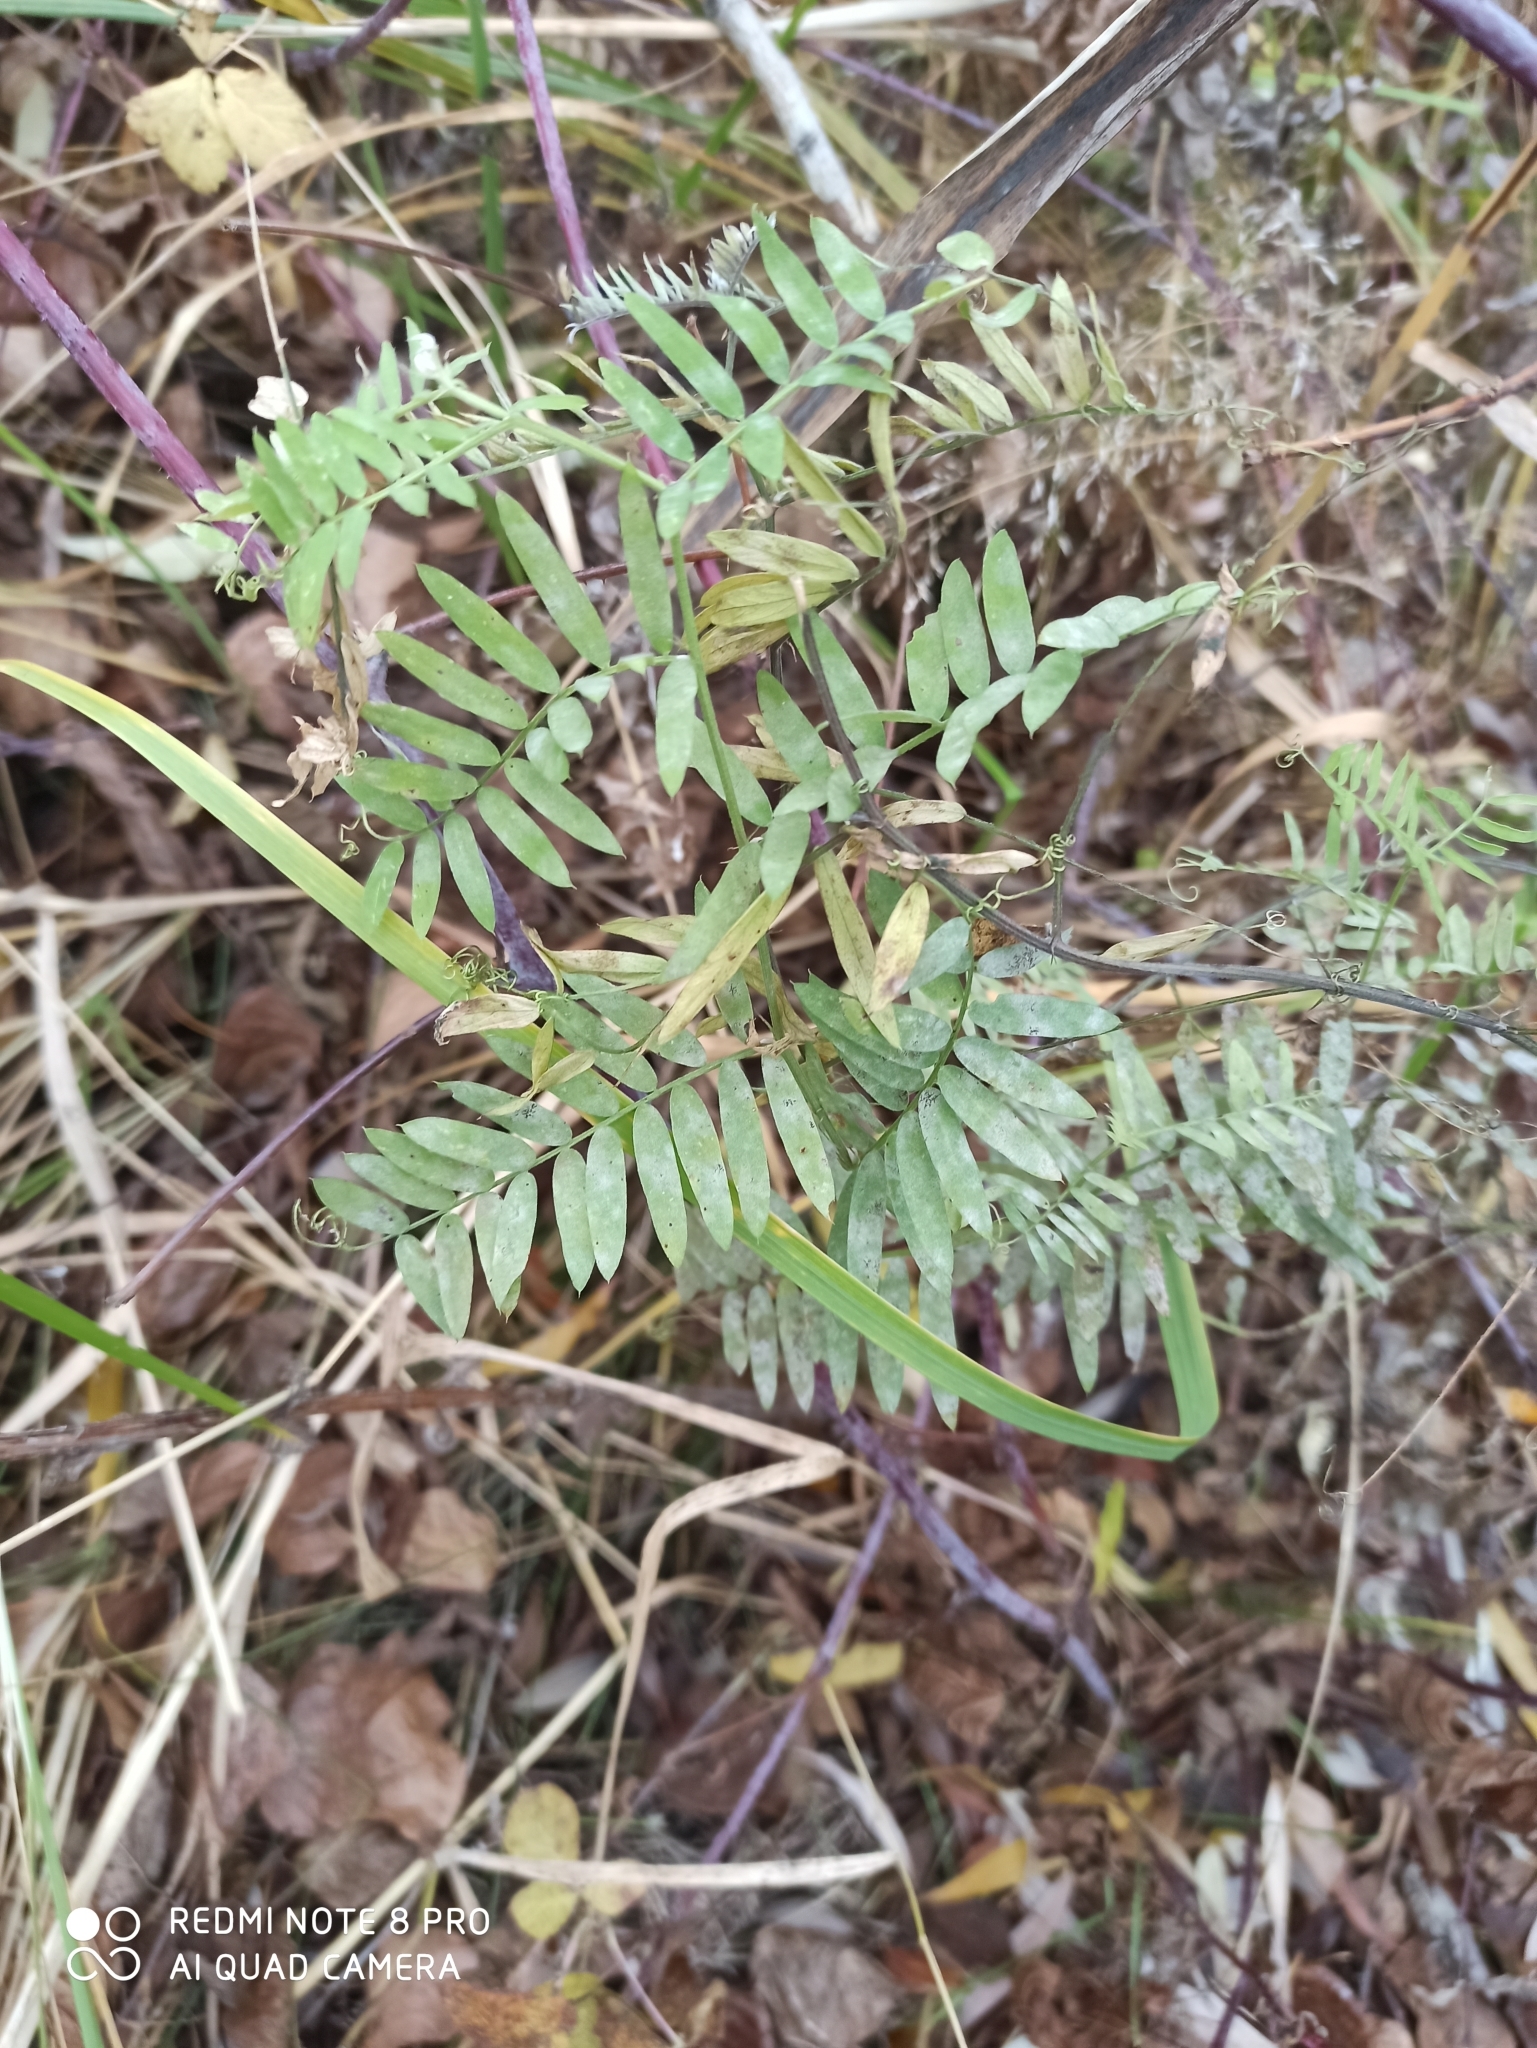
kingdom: Plantae
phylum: Tracheophyta
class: Magnoliopsida
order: Fabales
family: Fabaceae
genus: Vicia
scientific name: Vicia cracca
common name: Bird vetch
